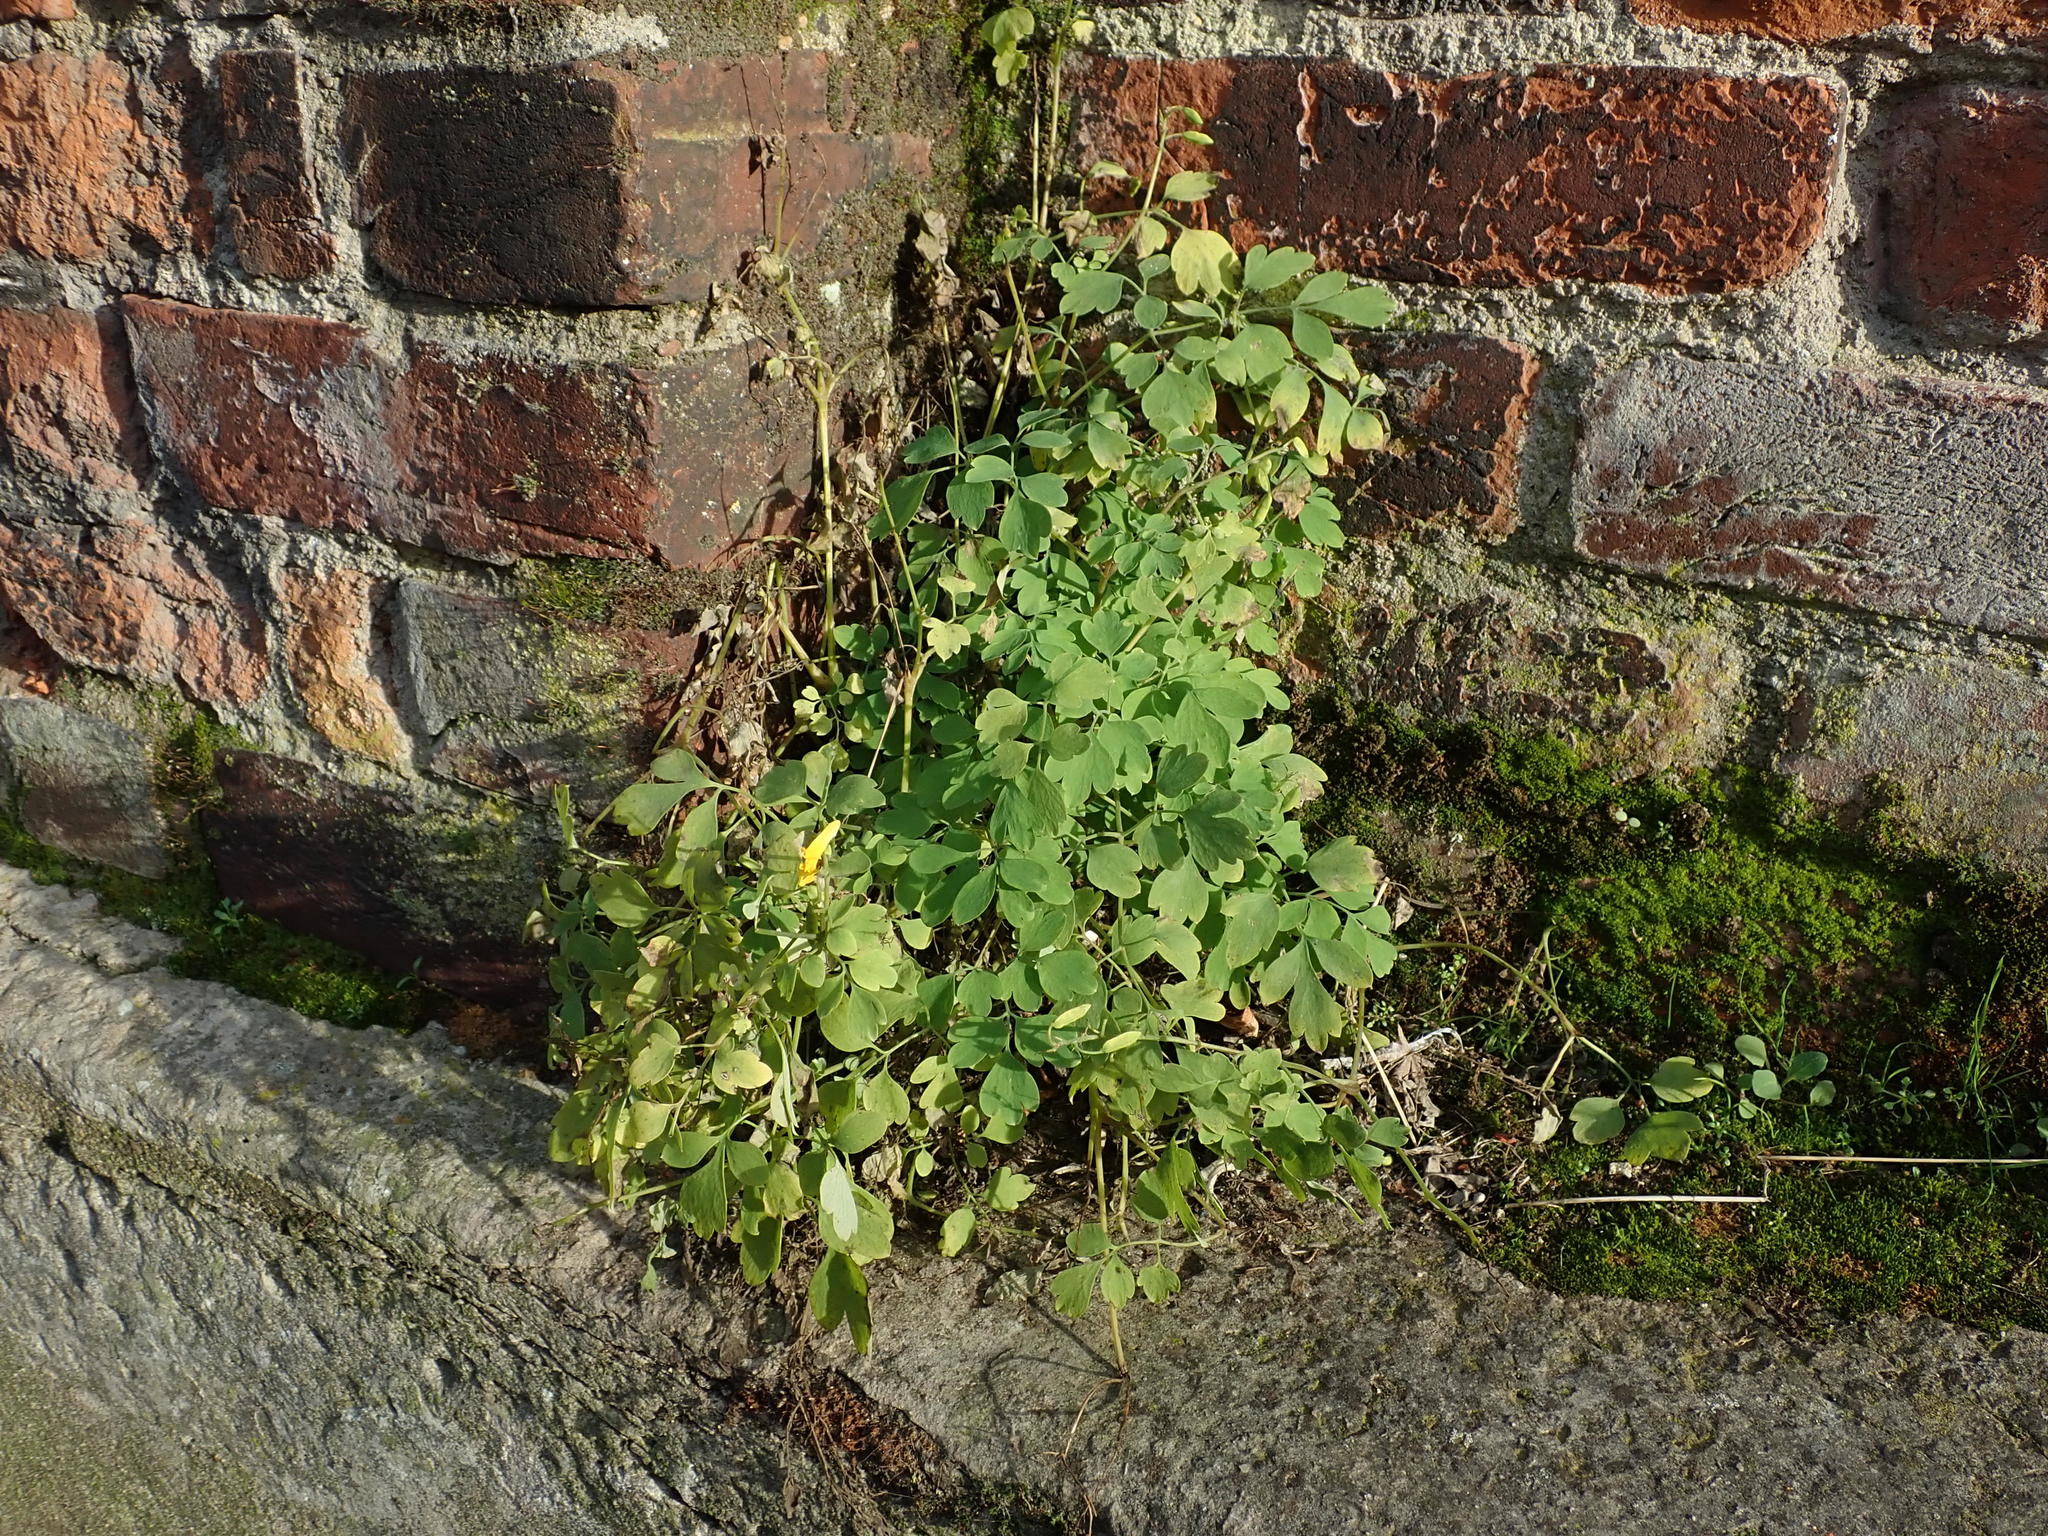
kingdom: Plantae
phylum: Tracheophyta
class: Magnoliopsida
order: Ranunculales
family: Papaveraceae
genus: Pseudofumaria
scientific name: Pseudofumaria lutea
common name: Yellow corydalis
